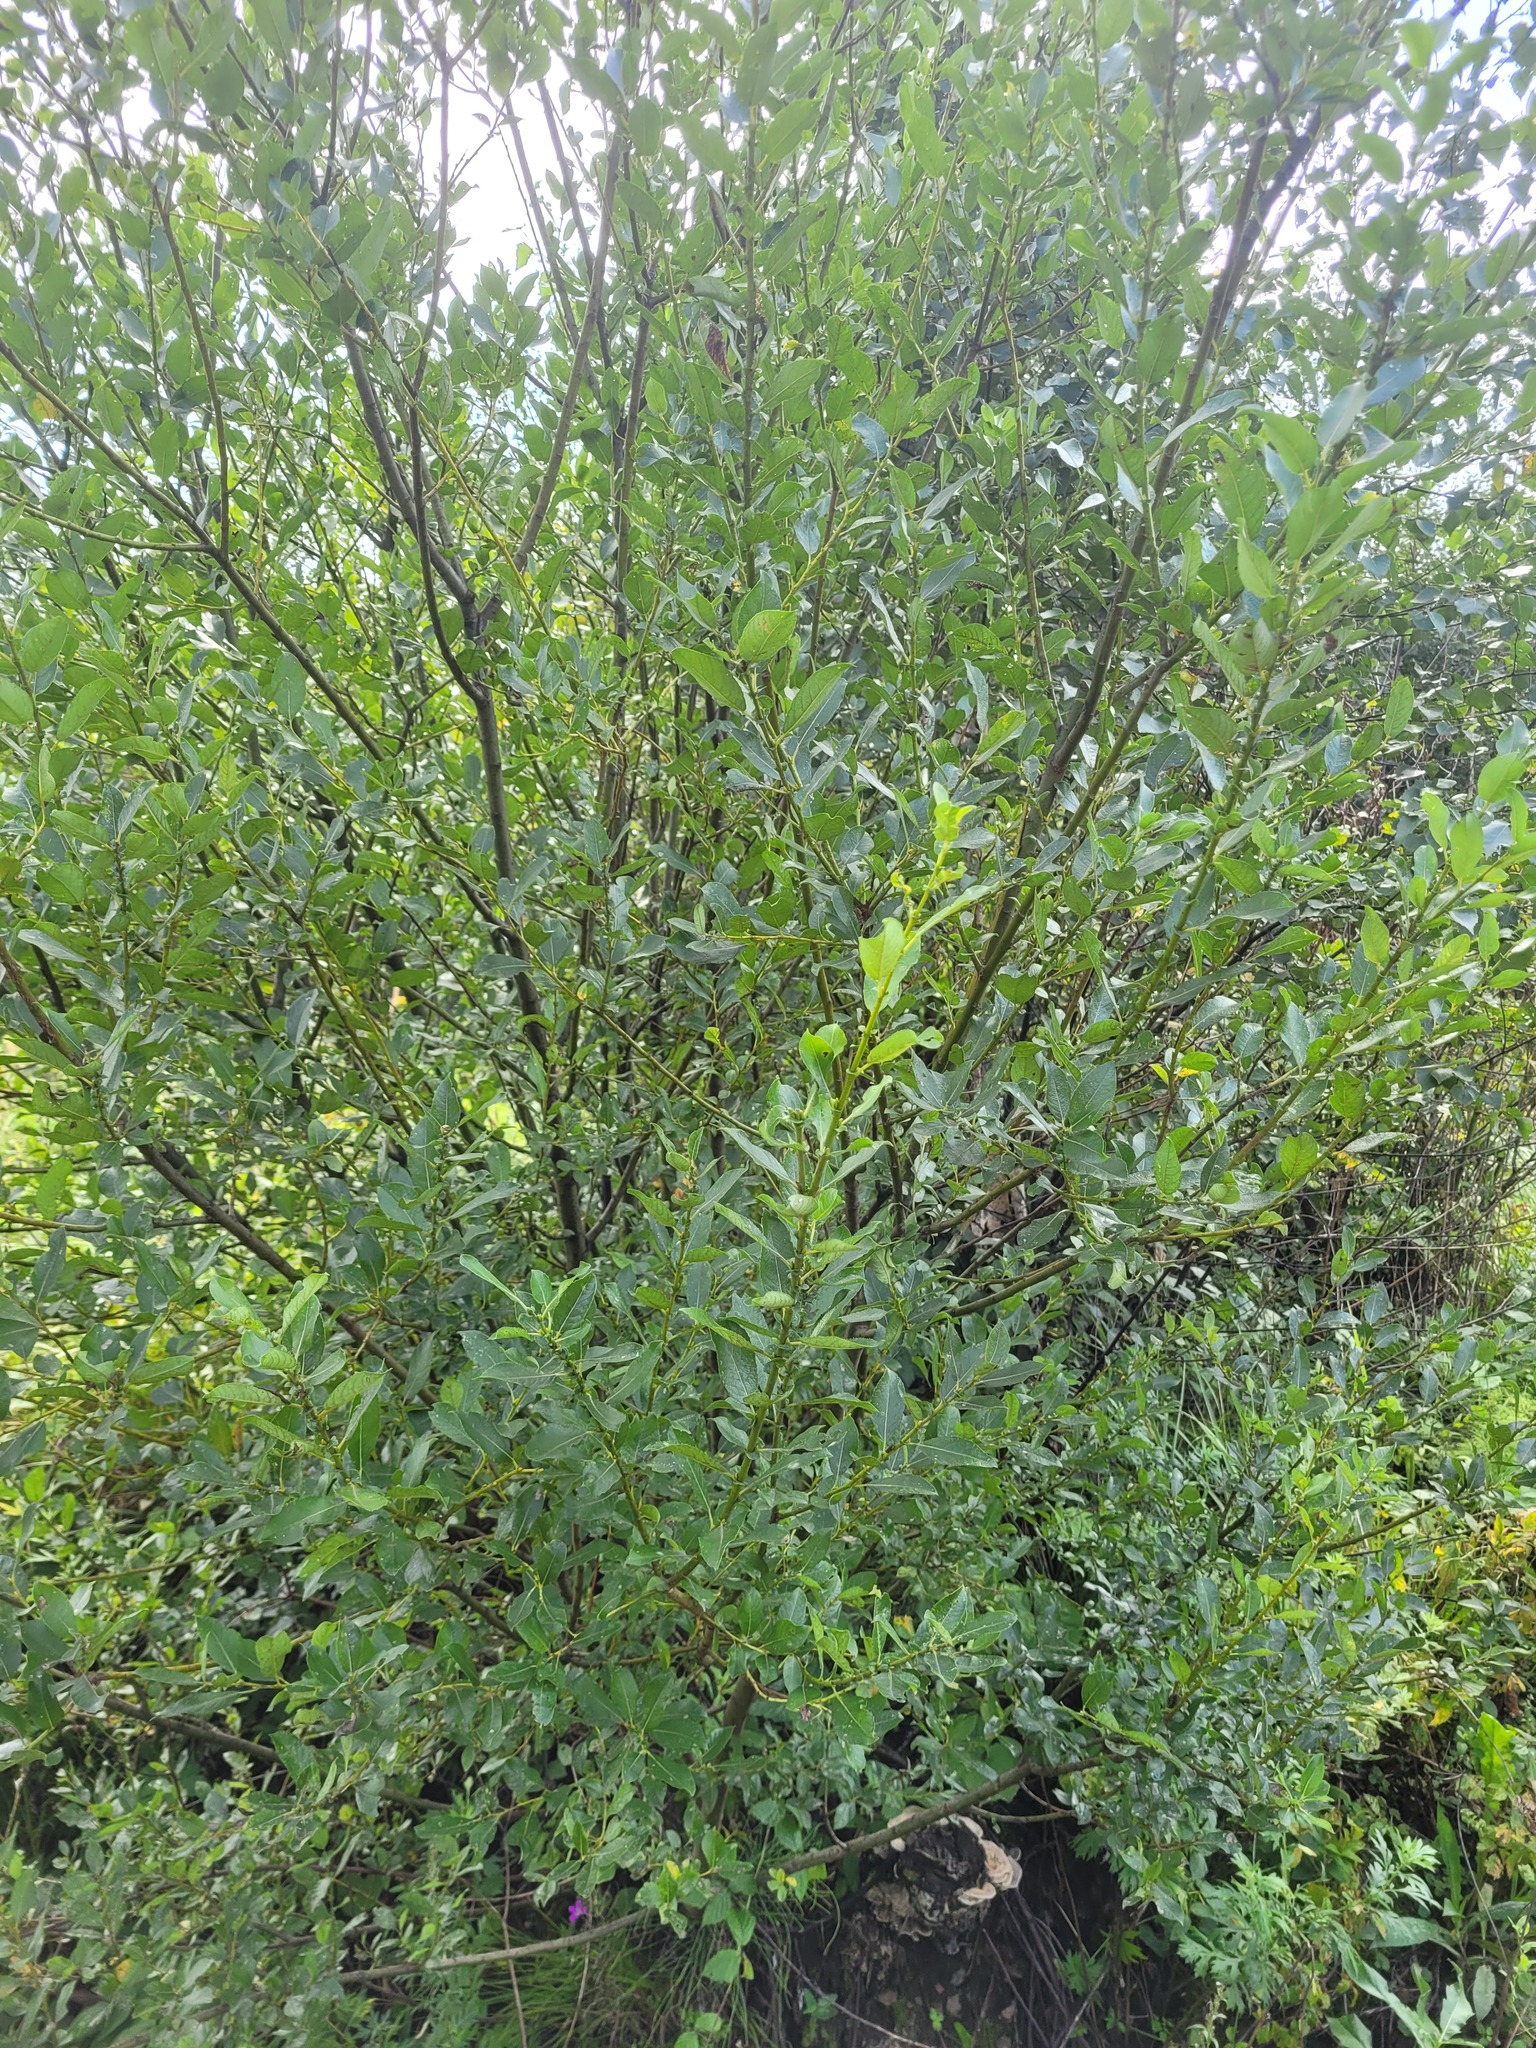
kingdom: Plantae
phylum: Tracheophyta
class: Magnoliopsida
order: Malpighiales
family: Salicaceae
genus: Salix
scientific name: Salix myrsinifolia
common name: Dark-leaved willow
